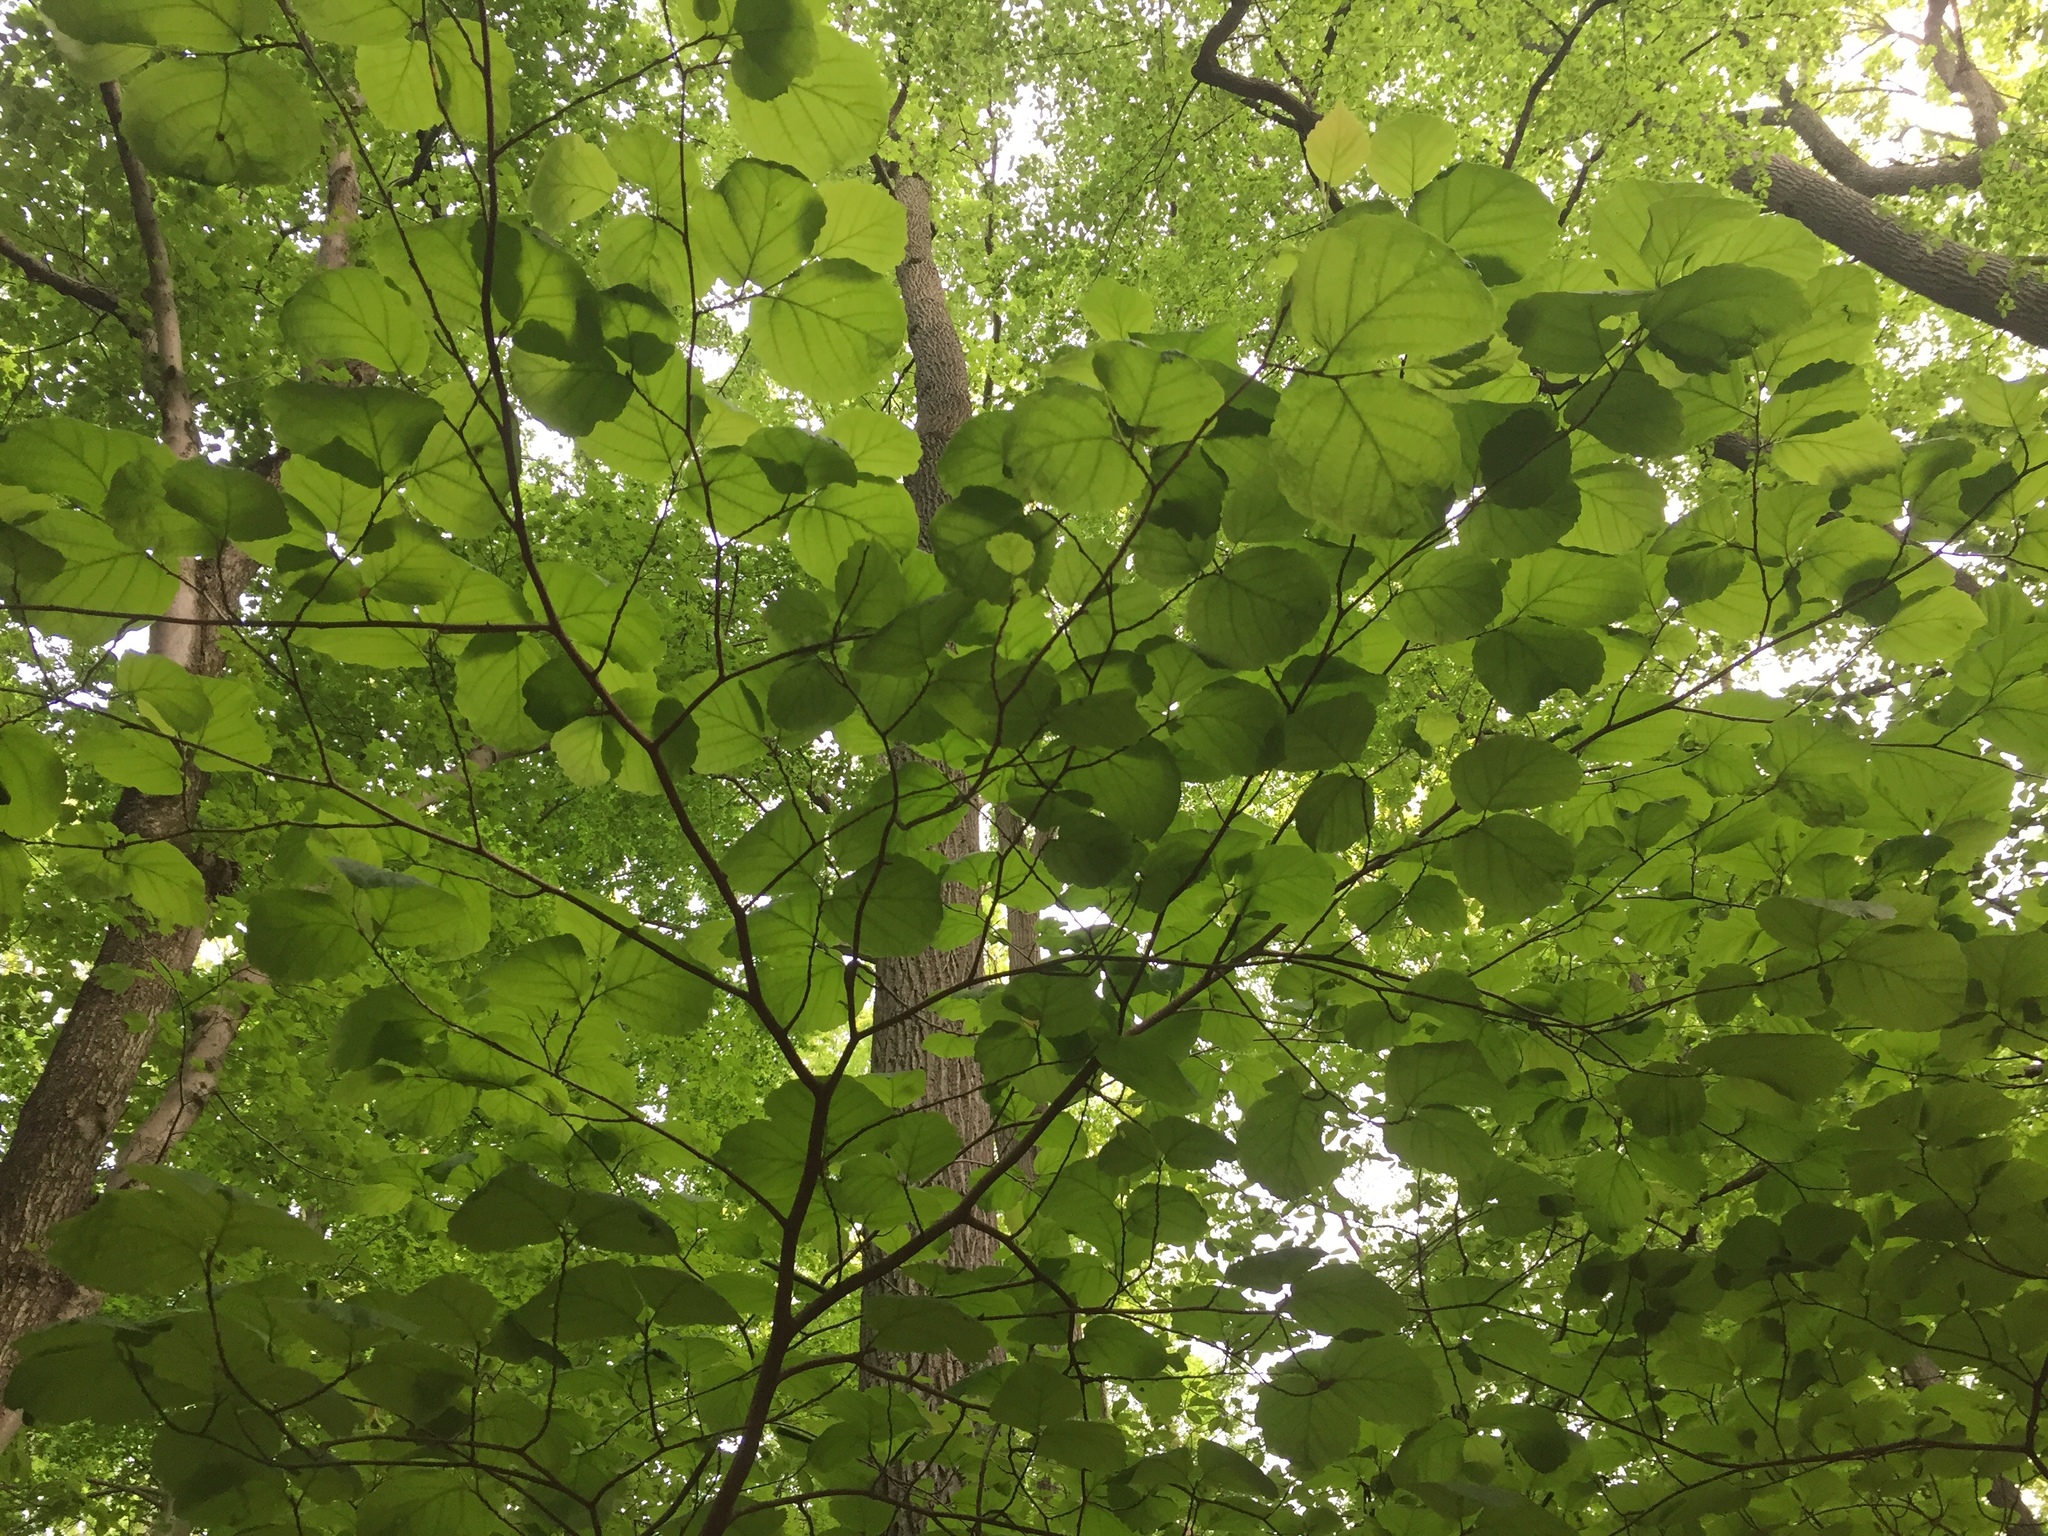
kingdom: Plantae
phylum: Tracheophyta
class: Magnoliopsida
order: Saxifragales
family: Hamamelidaceae
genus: Hamamelis
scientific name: Hamamelis virginiana
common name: Witch-hazel
